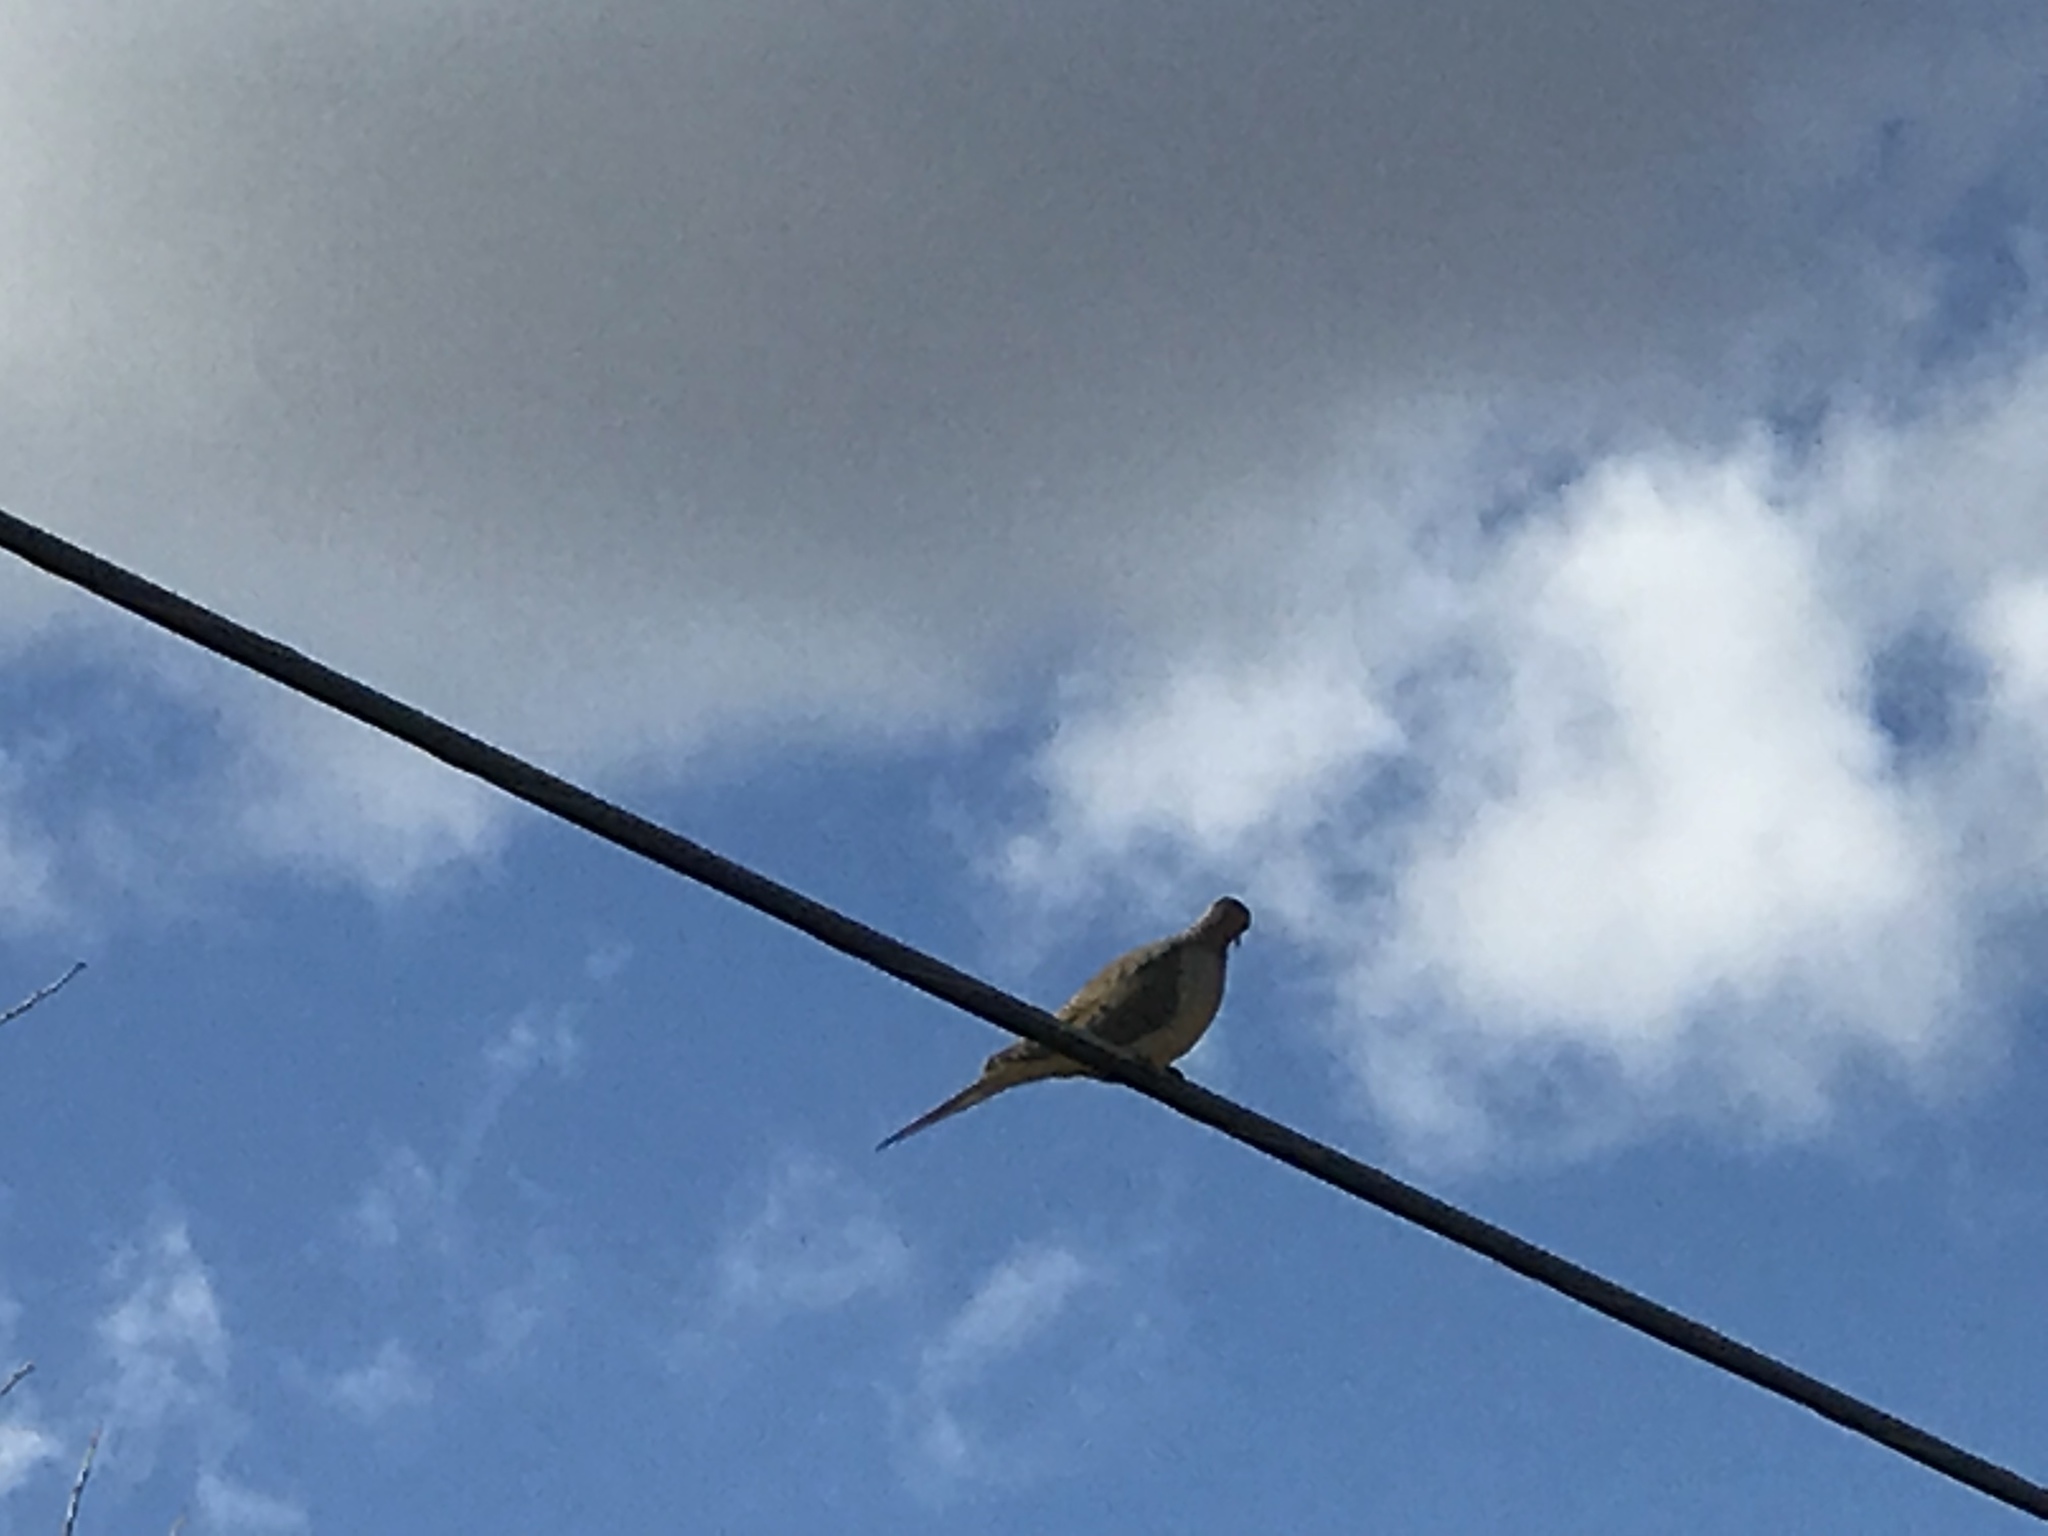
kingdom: Animalia
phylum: Chordata
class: Aves
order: Columbiformes
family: Columbidae
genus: Zenaida
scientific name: Zenaida macroura
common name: Mourning dove
